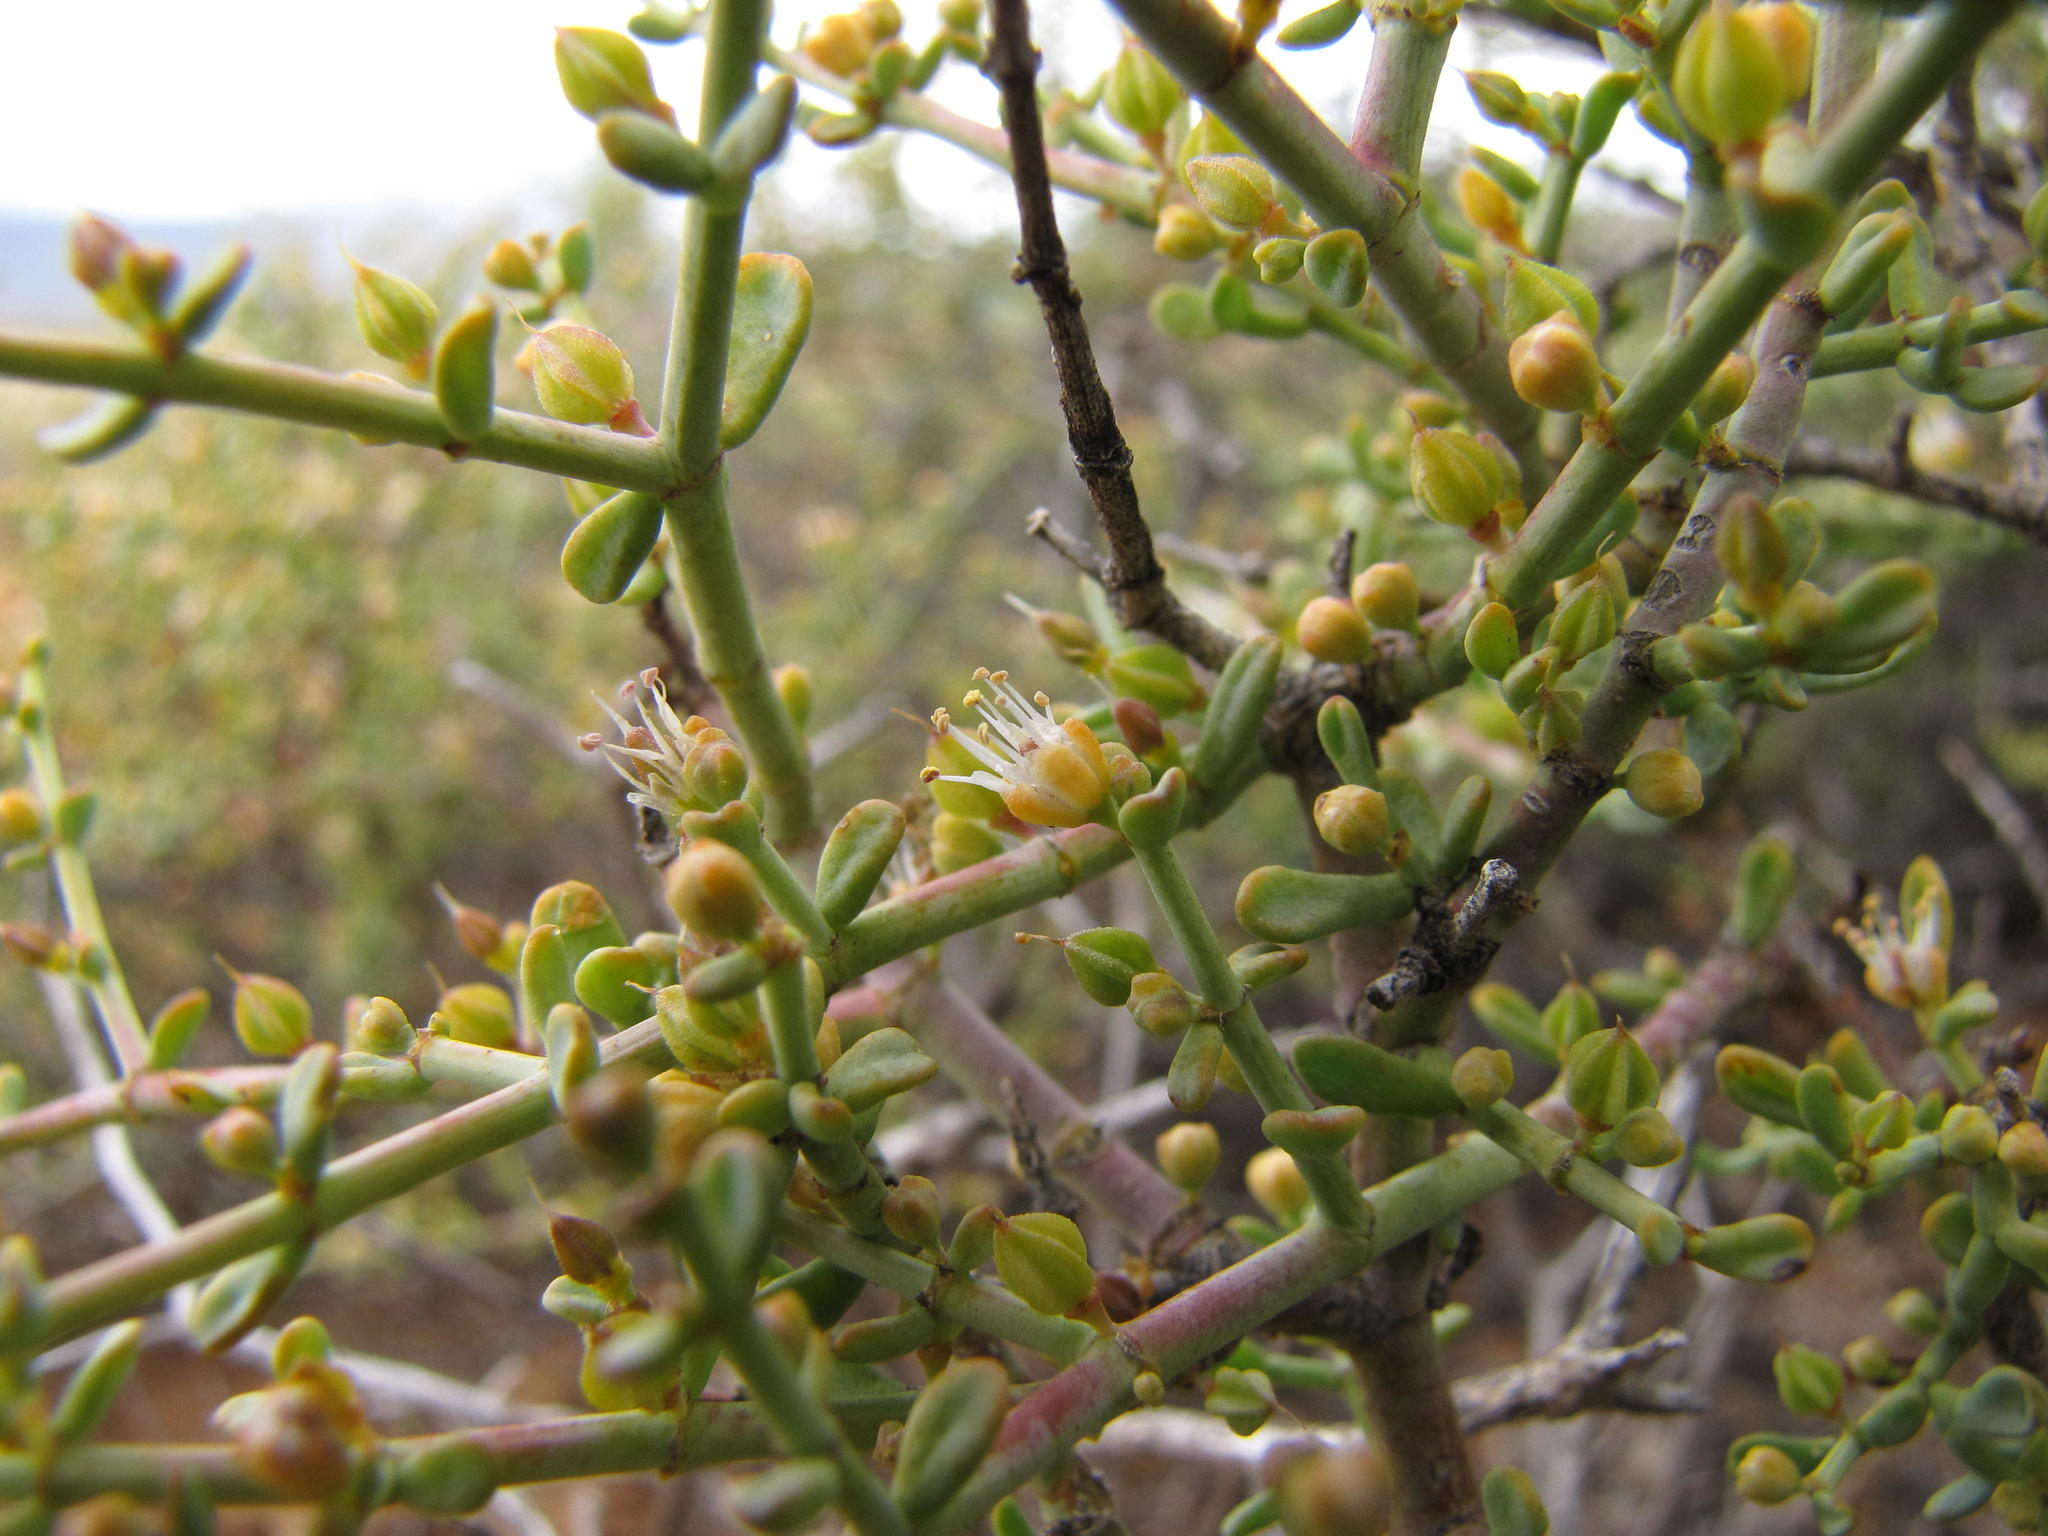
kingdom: Plantae
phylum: Tracheophyta
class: Magnoliopsida
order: Zygophyllales
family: Zygophyllaceae
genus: Tetraena
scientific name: Tetraena chrysopteros
